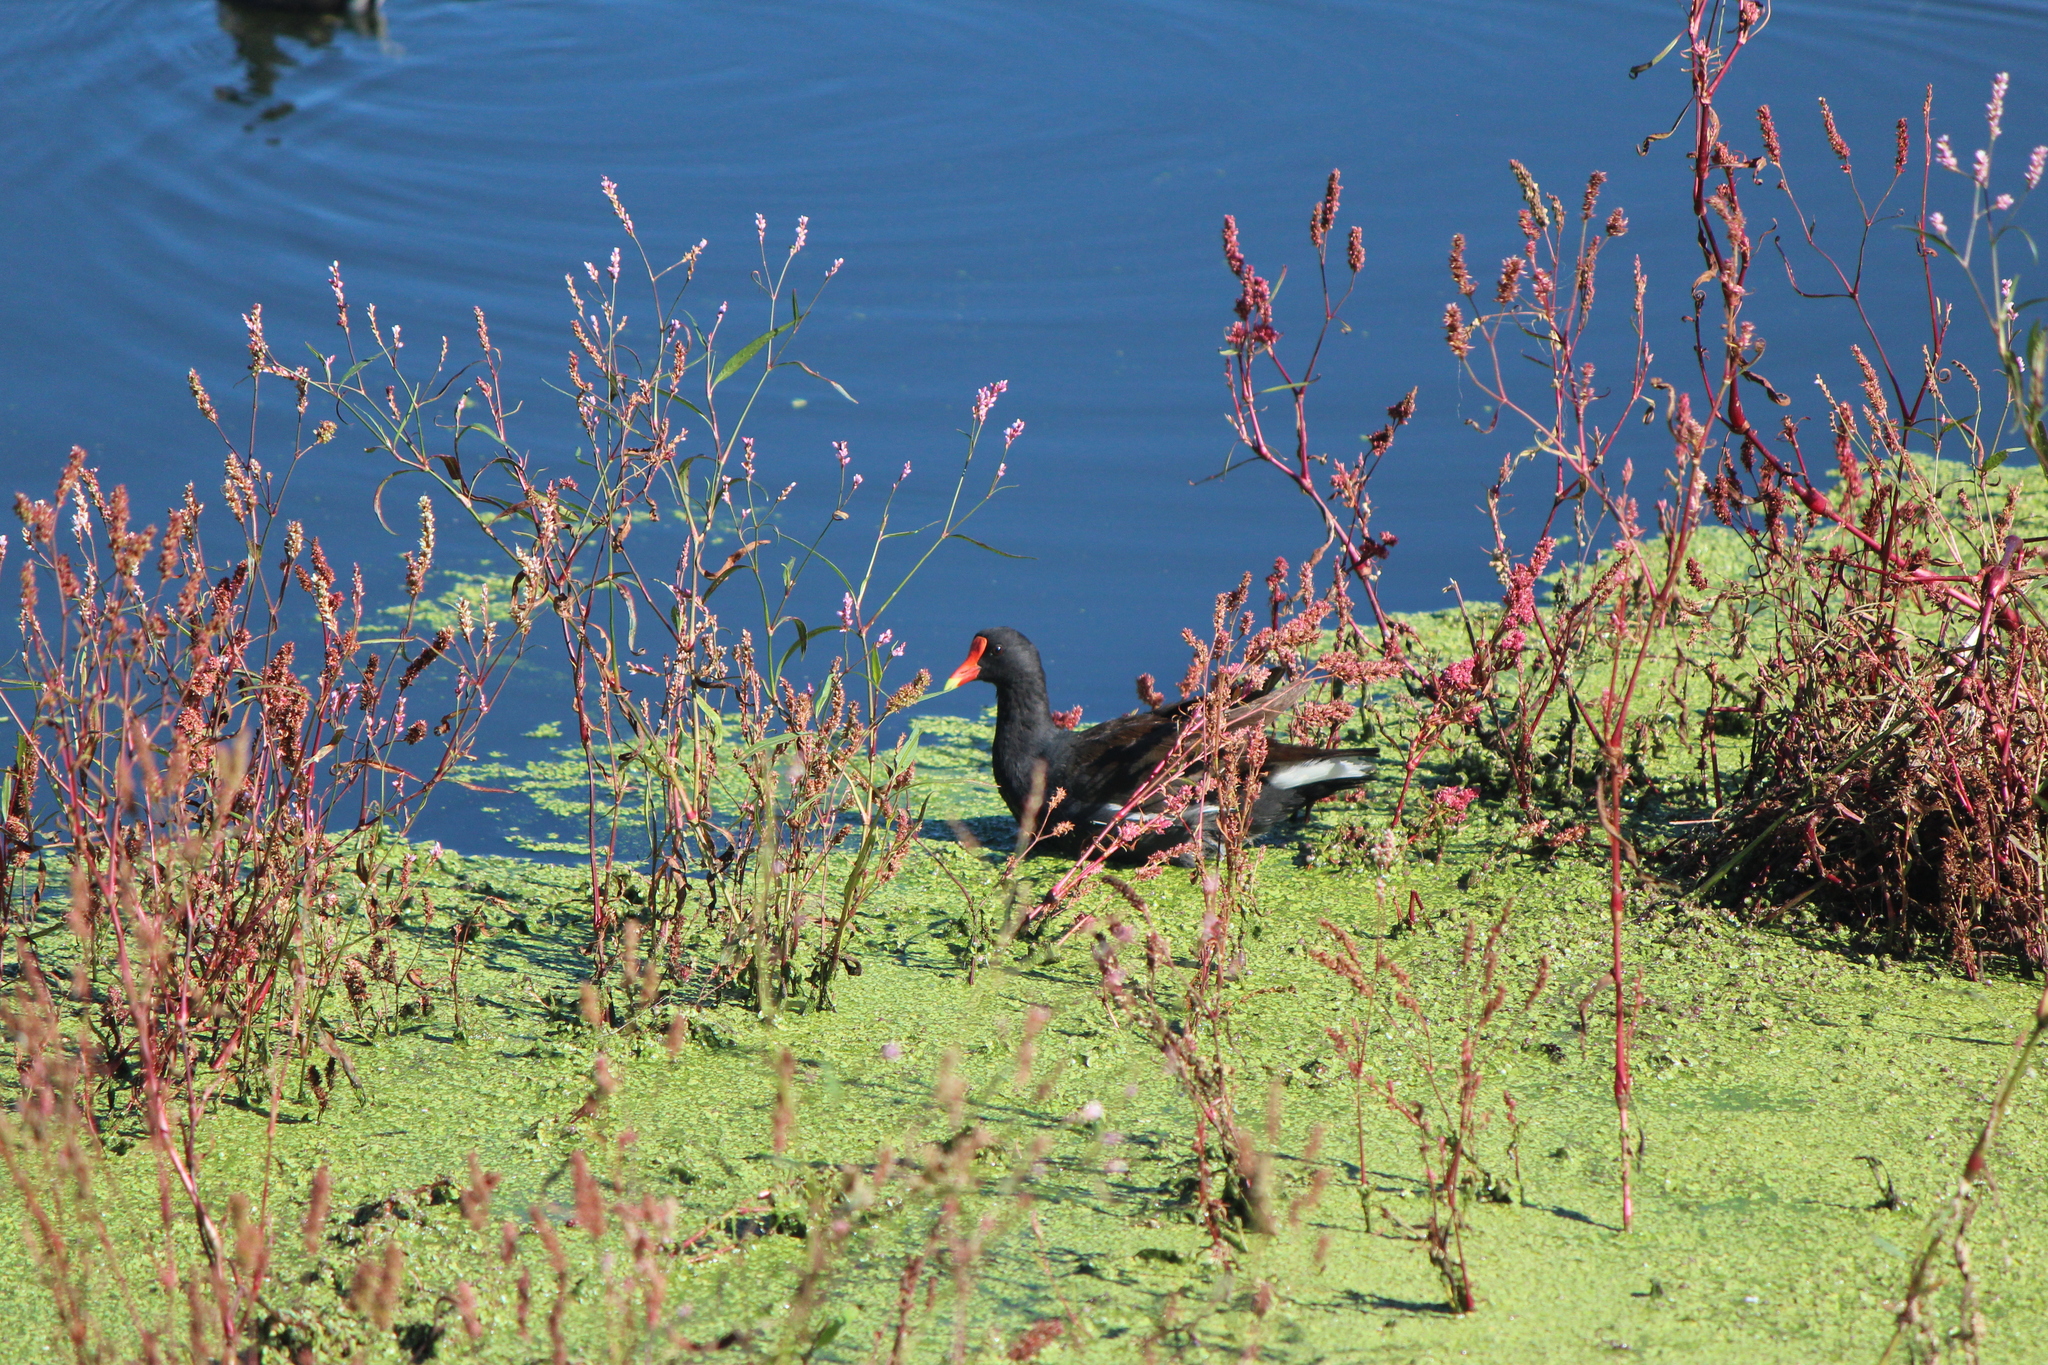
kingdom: Animalia
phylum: Chordata
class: Aves
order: Gruiformes
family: Rallidae
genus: Gallinula
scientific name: Gallinula chloropus
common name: Common moorhen
